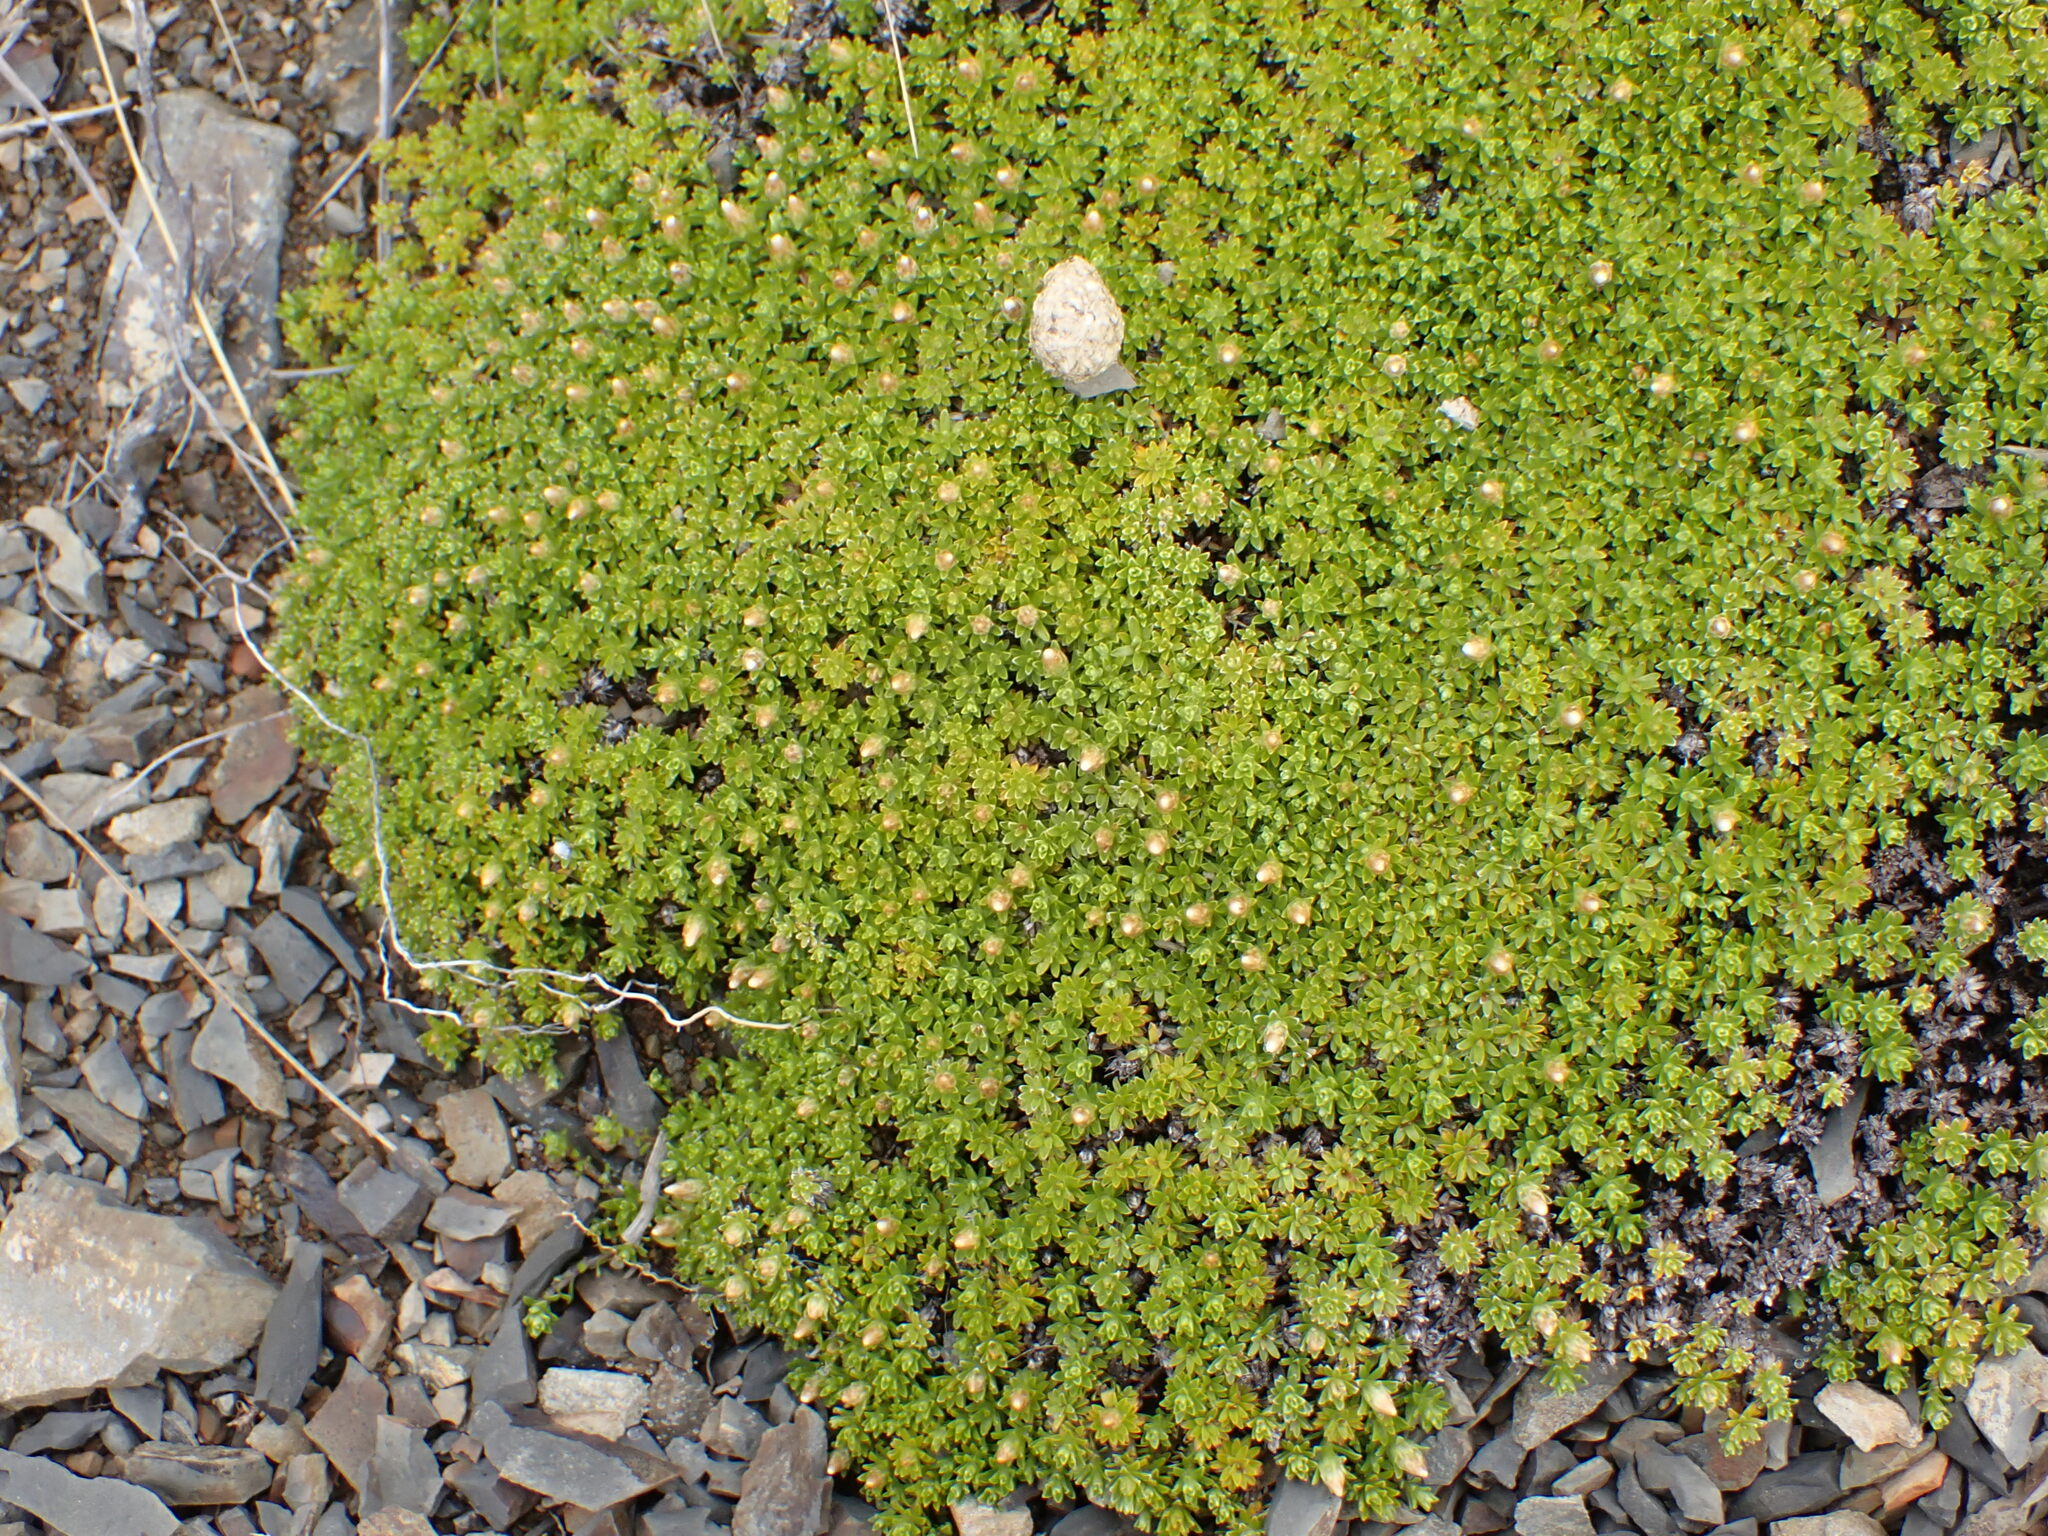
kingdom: Plantae
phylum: Tracheophyta
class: Magnoliopsida
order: Asterales
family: Asteraceae
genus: Raoulia
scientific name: Raoulia subsericea
